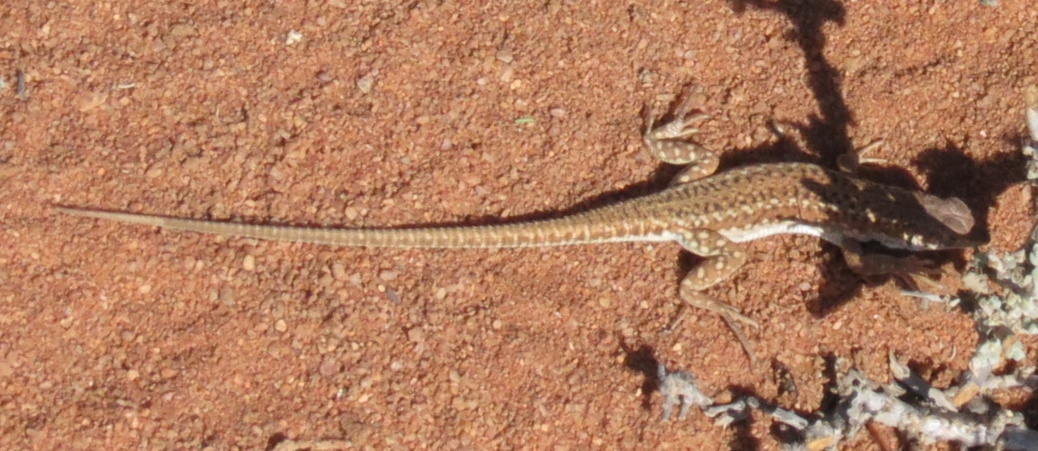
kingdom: Animalia
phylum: Chordata
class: Squamata
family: Lacertidae
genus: Meroles
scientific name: Meroles suborbitalis
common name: Spotted sand lizard
